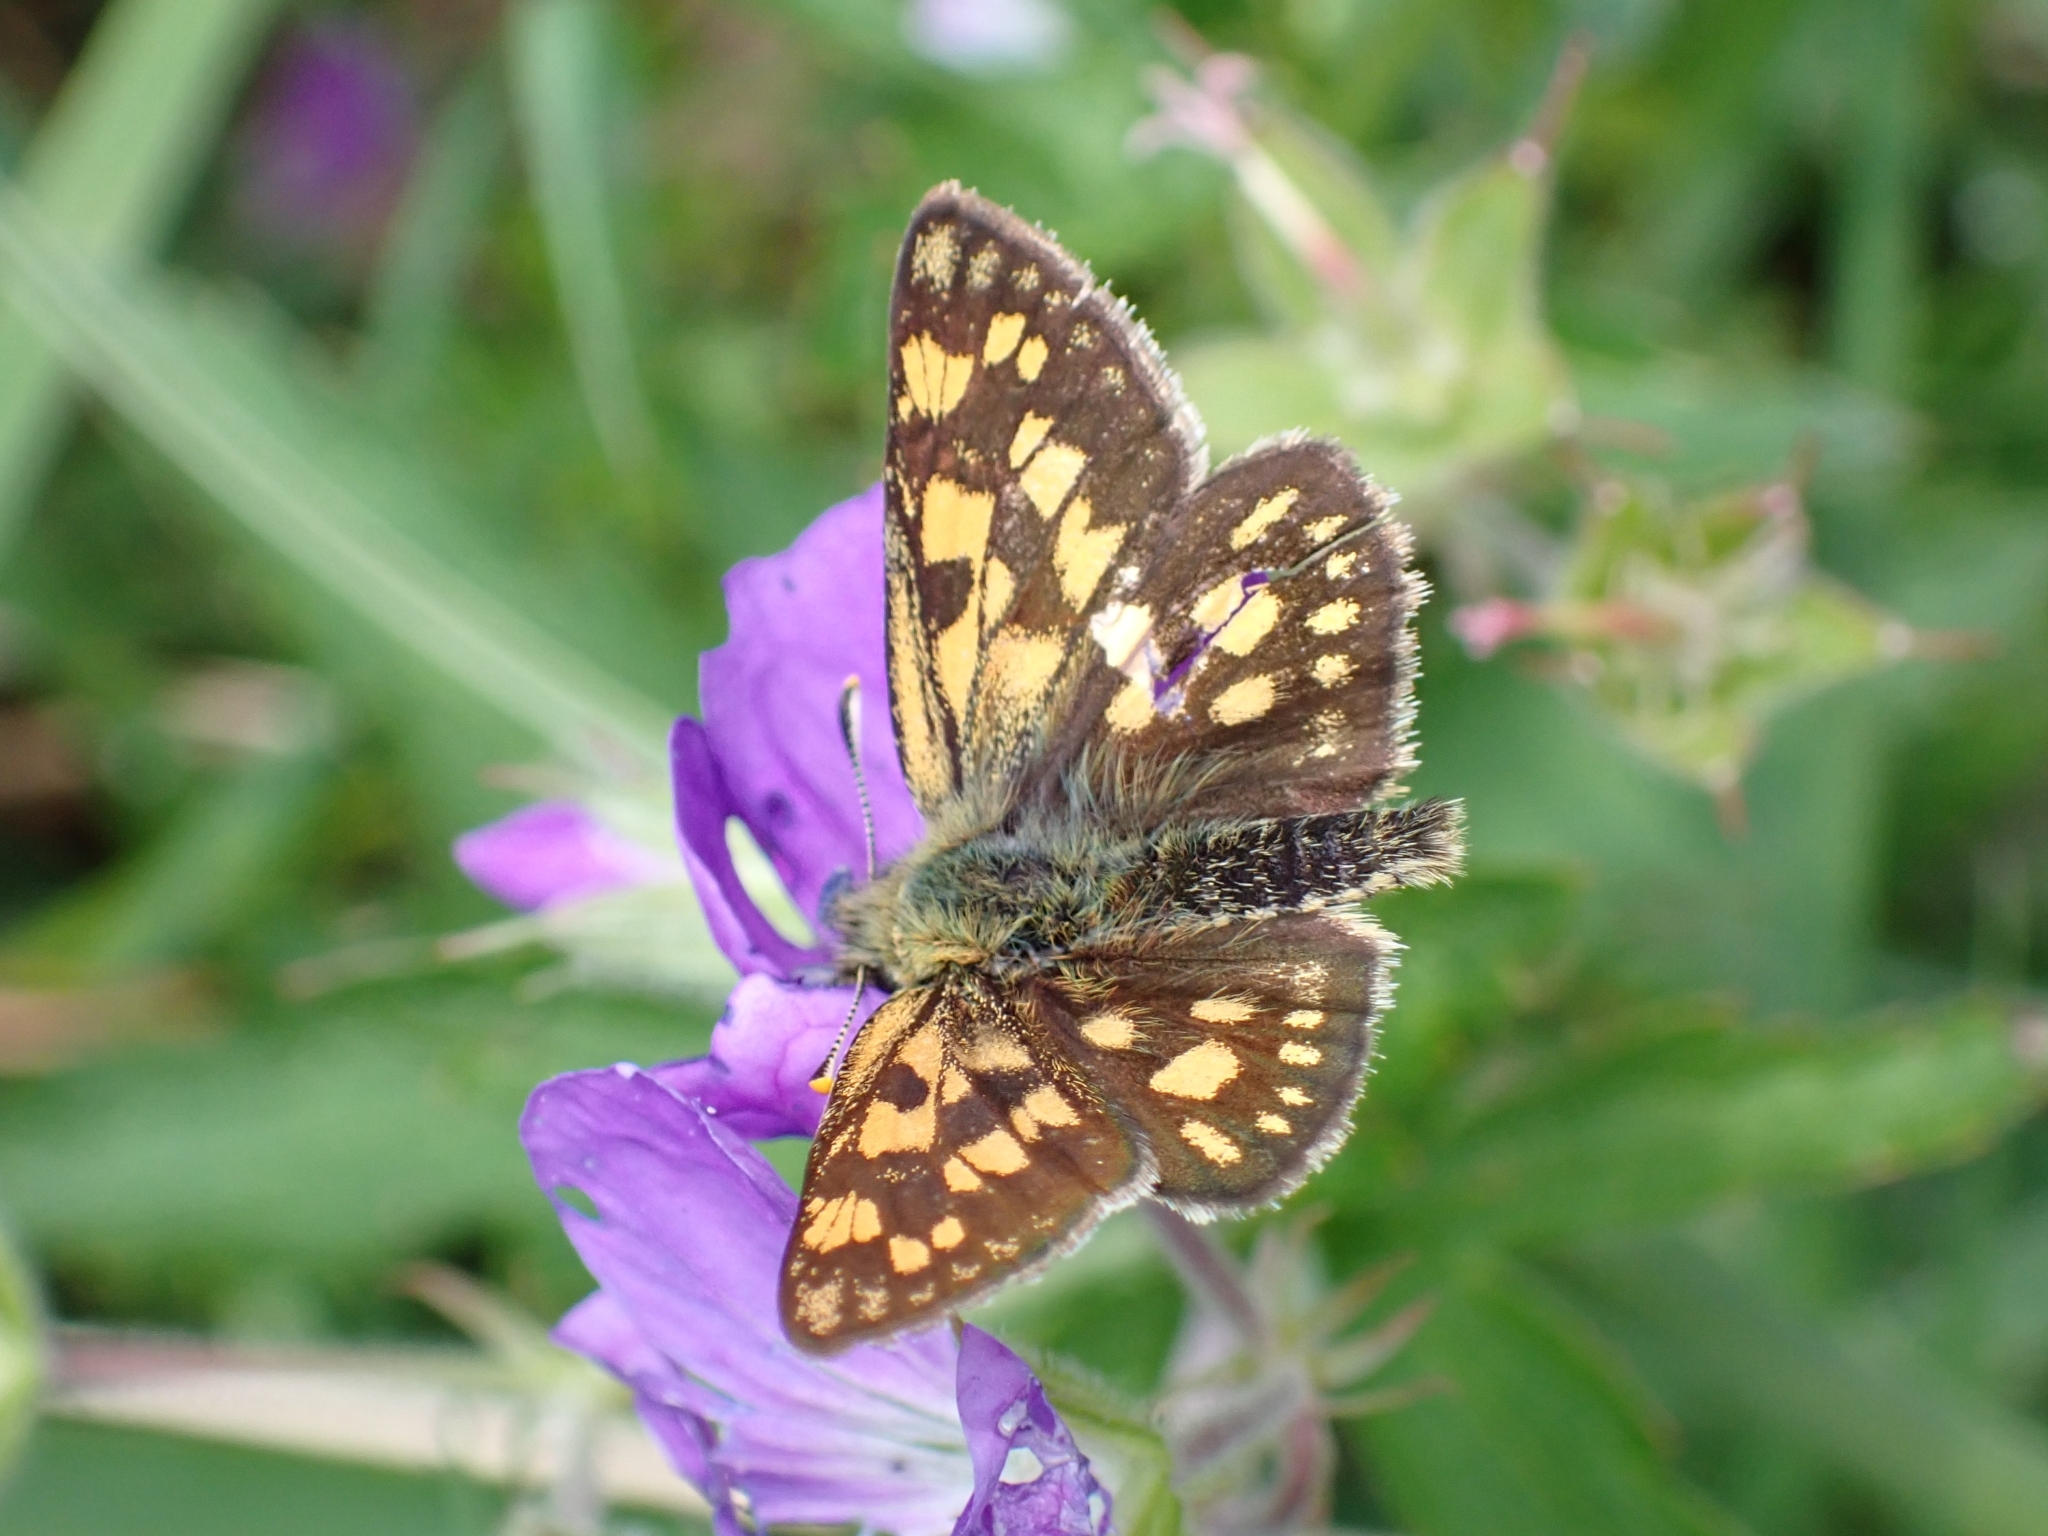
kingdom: Animalia
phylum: Arthropoda
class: Insecta
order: Lepidoptera
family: Hesperiidae
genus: Carterocephalus
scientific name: Carterocephalus palaemon
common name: Chequered skipper
